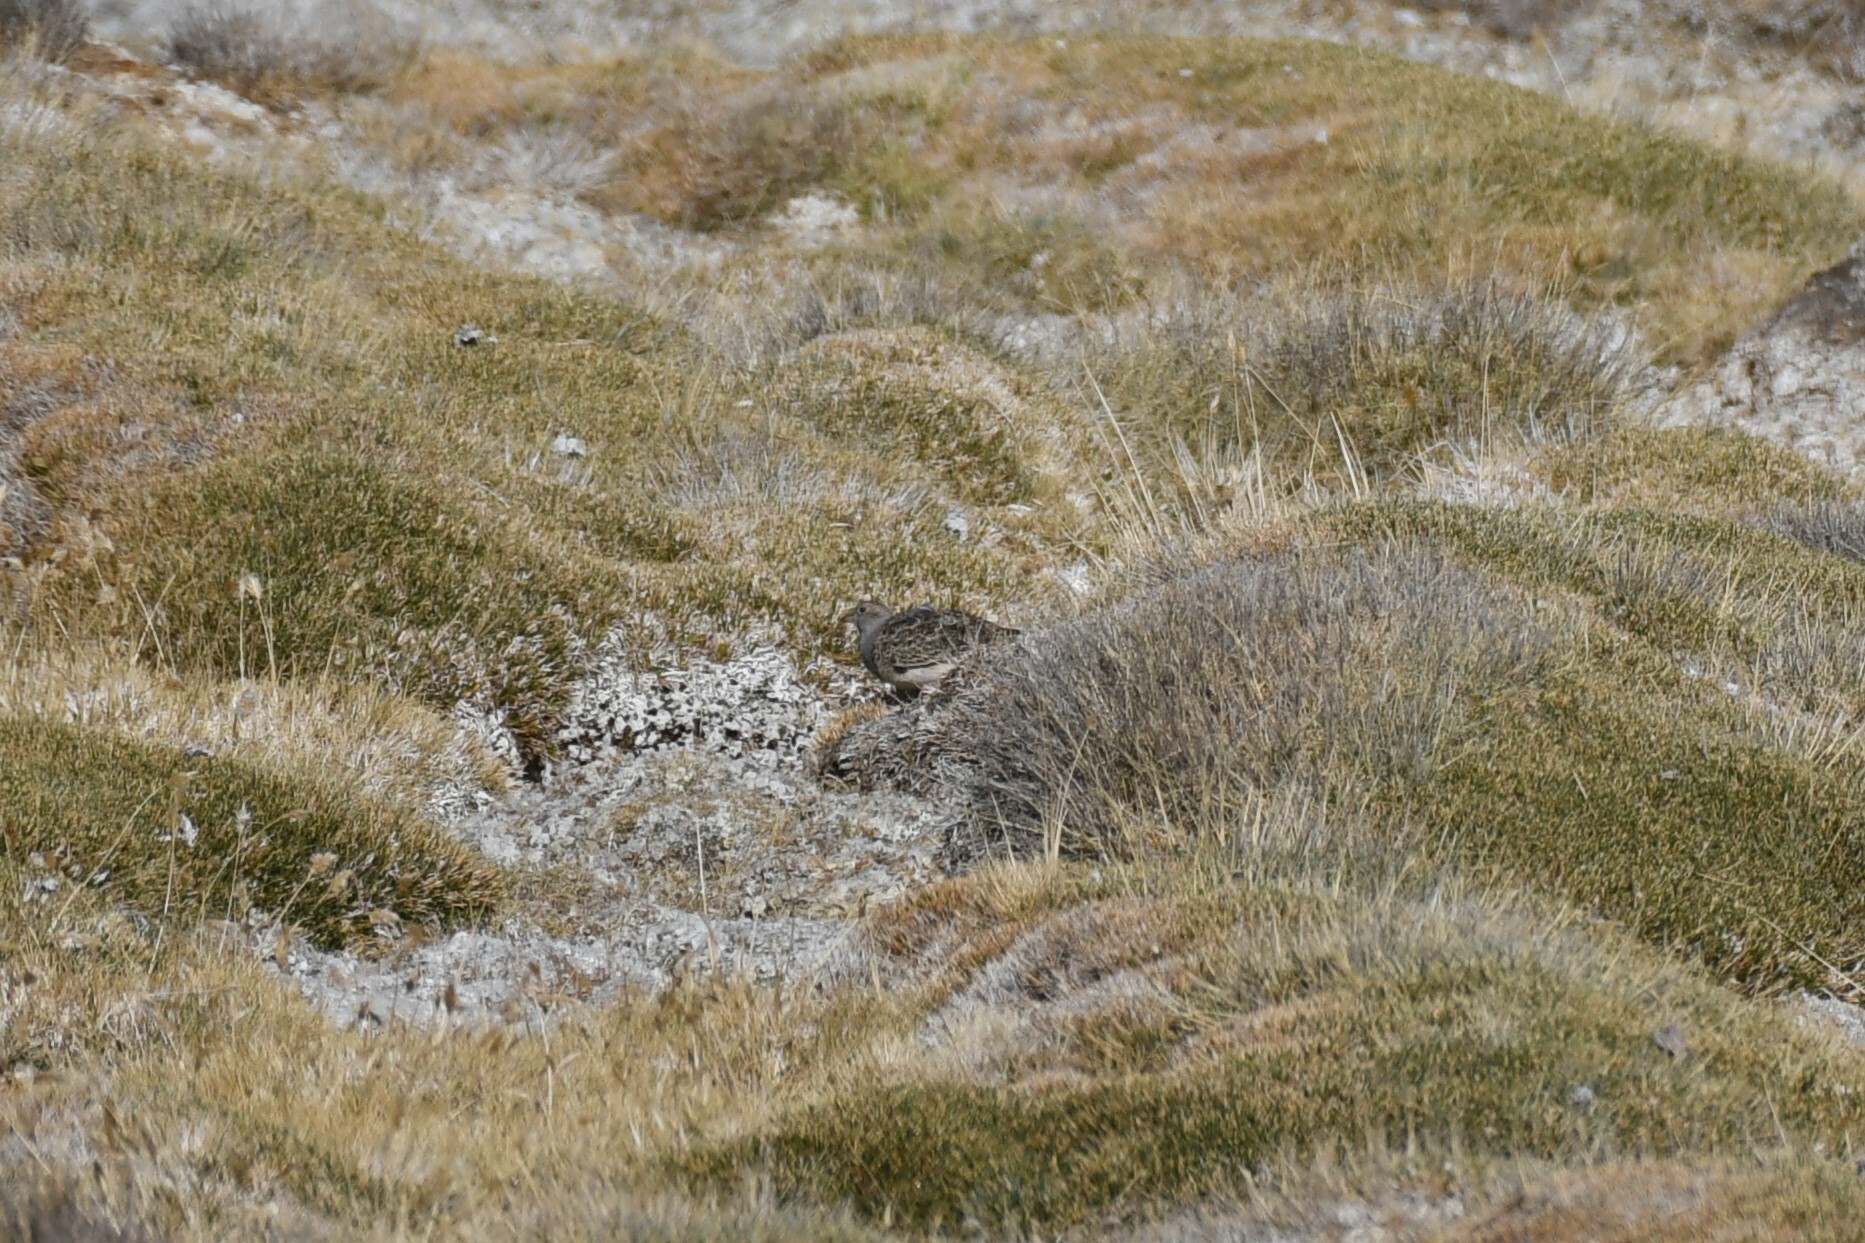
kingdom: Animalia
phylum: Chordata
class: Aves
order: Charadriiformes
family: Thinocoridae
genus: Thinocorus
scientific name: Thinocorus orbignyianus
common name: Grey-breasted seedsnipe
